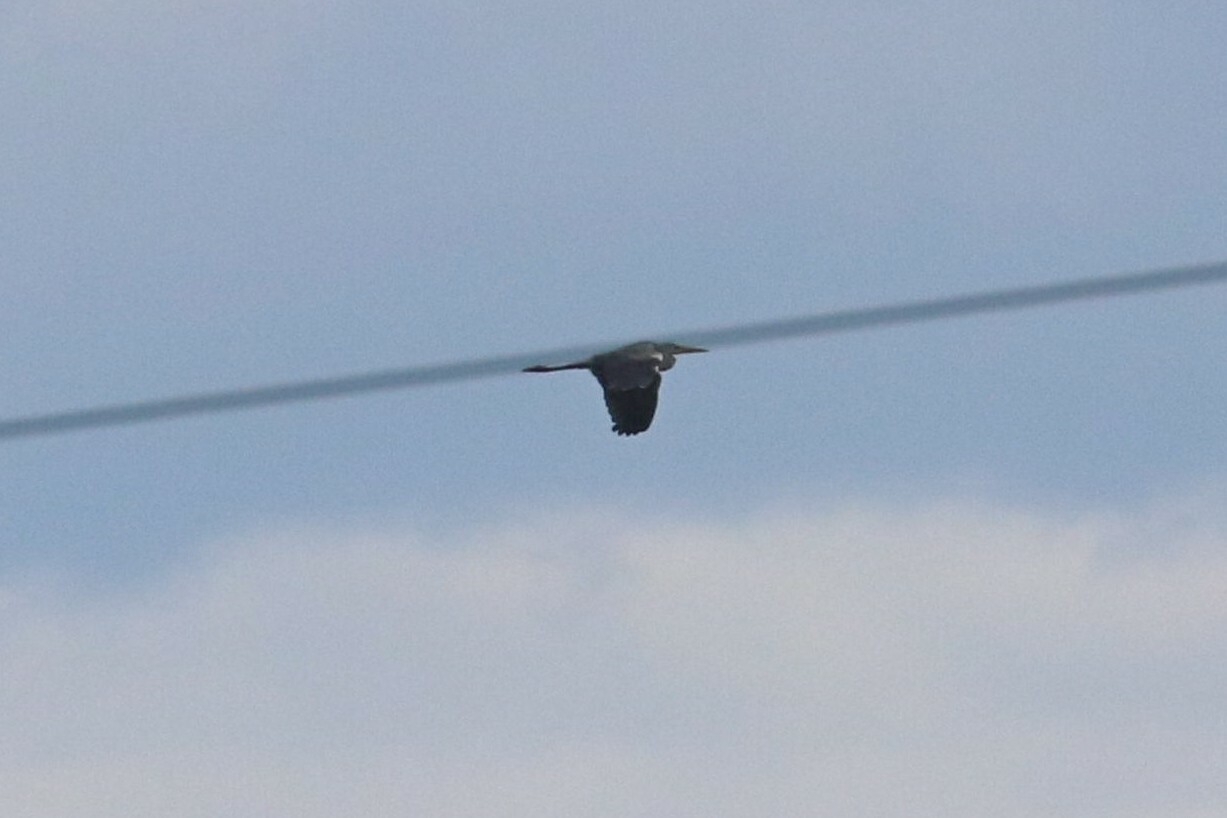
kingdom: Animalia
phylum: Chordata
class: Aves
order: Pelecaniformes
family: Ardeidae
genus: Ardea
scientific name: Ardea cinerea
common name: Grey heron
